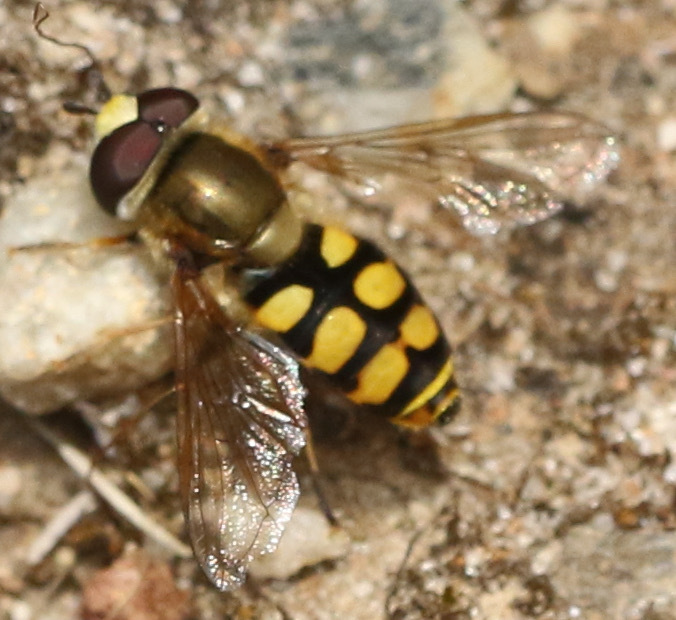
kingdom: Animalia
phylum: Arthropoda
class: Insecta
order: Diptera
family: Syrphidae
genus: Eupeodes
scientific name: Eupeodes corollae
